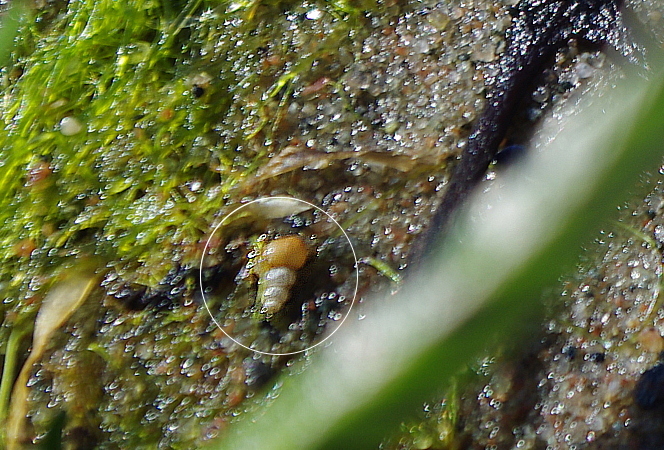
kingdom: Animalia
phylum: Mollusca
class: Gastropoda
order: Littorinimorpha
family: Hydrobiidae
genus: Peringia
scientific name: Peringia ulvae
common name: Laver spire shell
